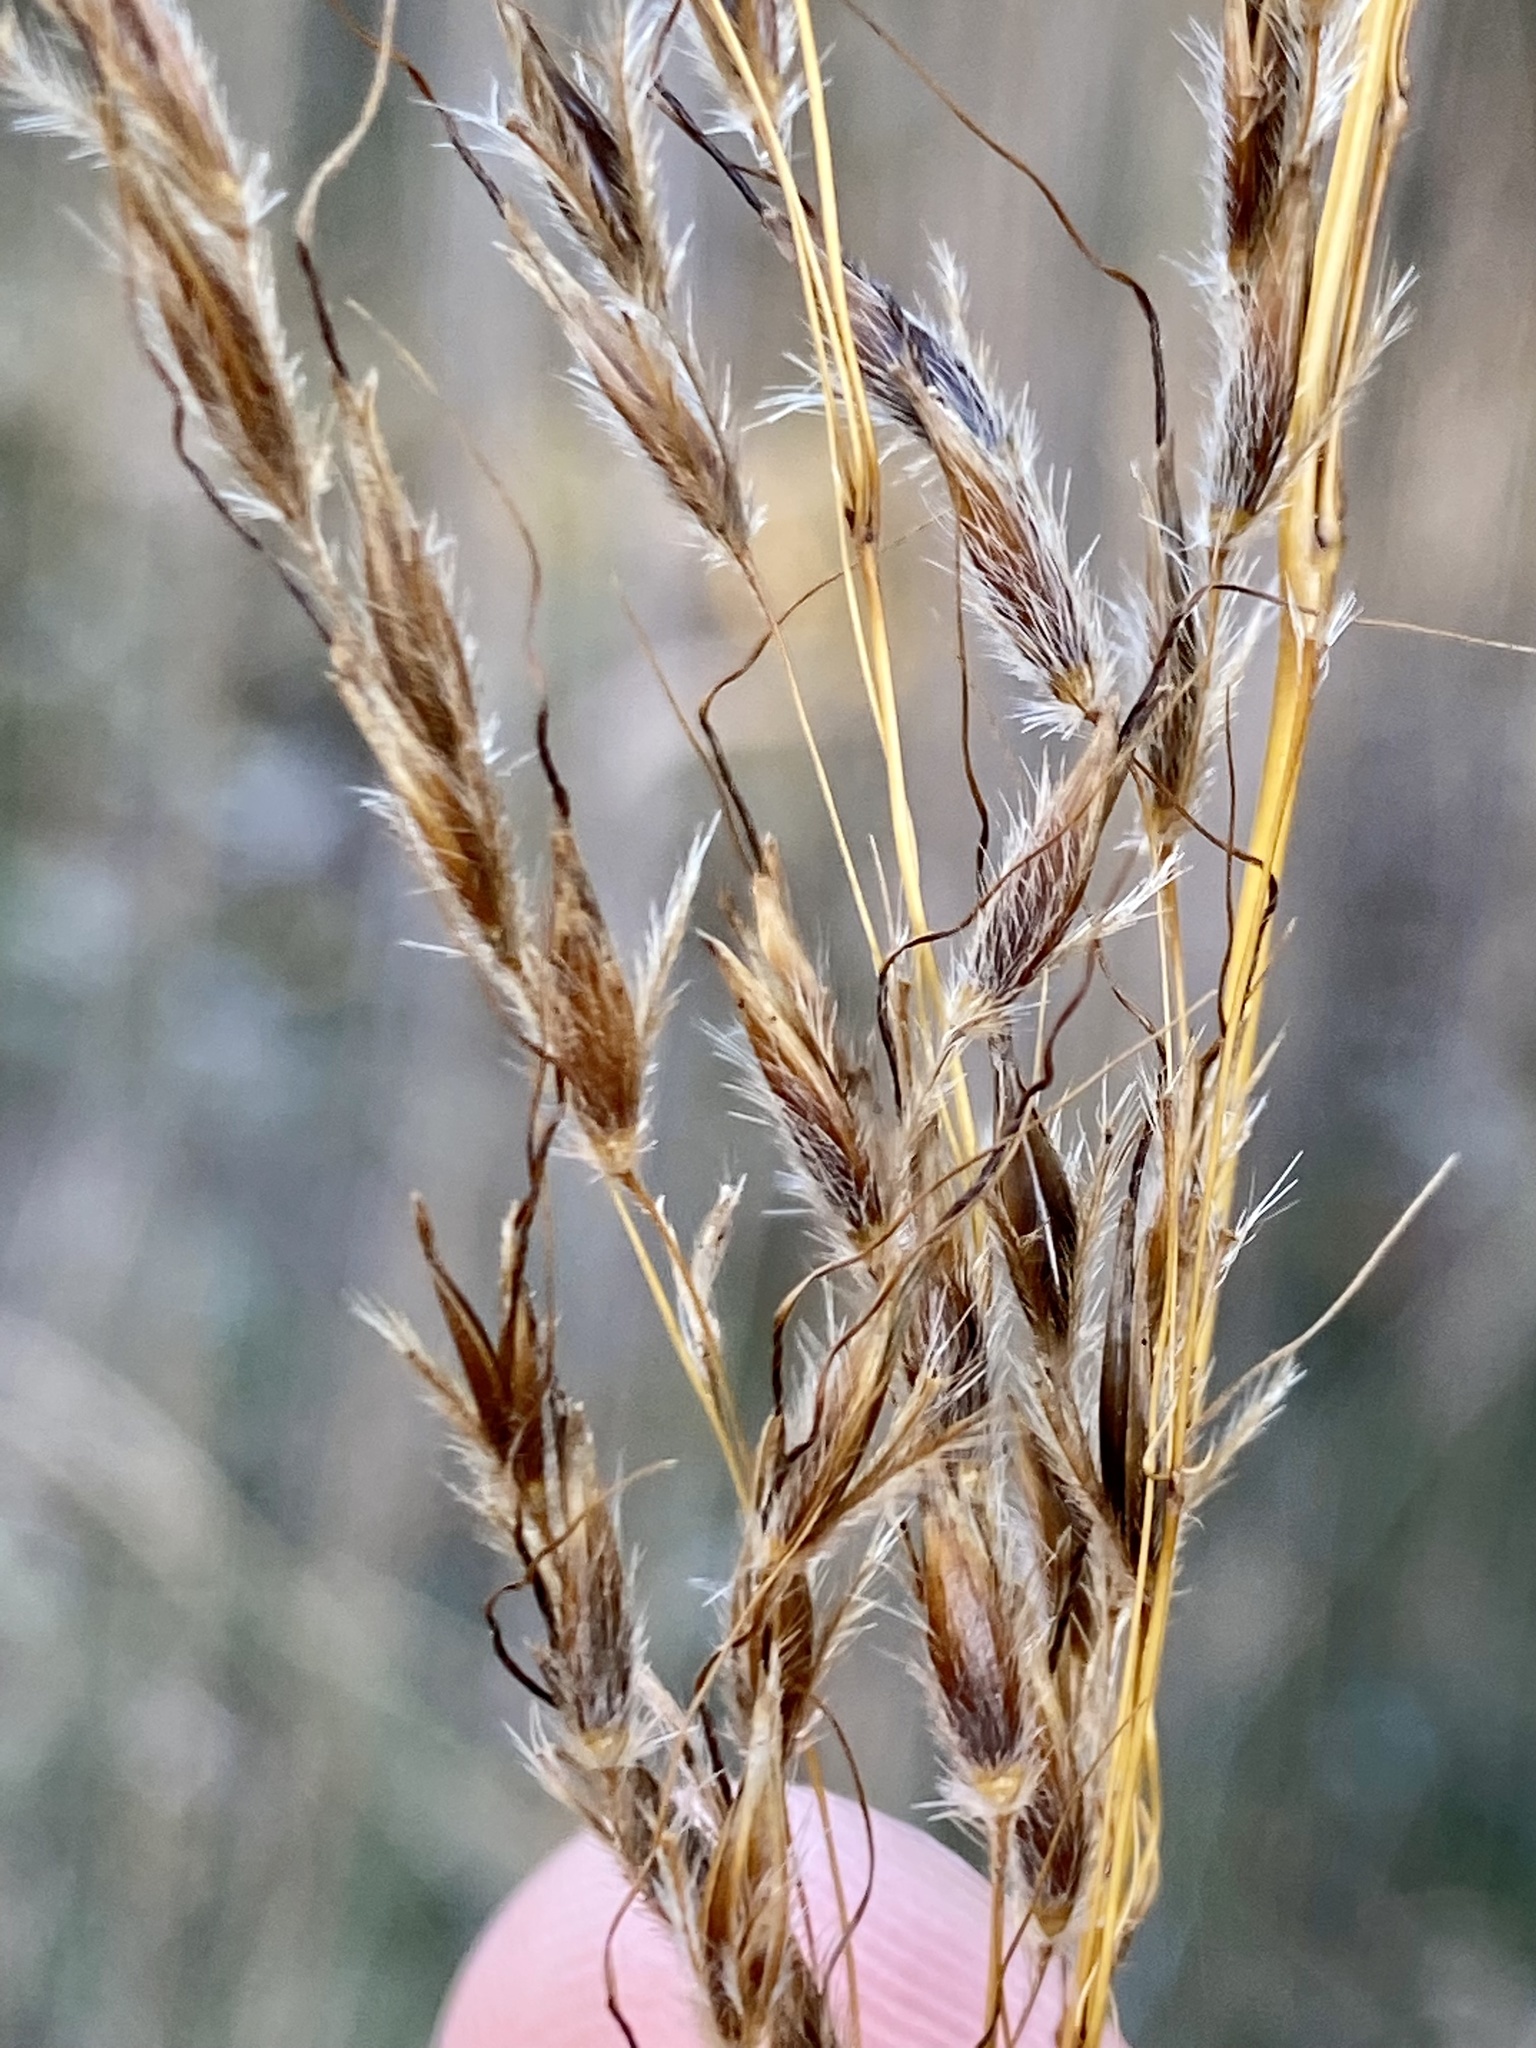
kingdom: Plantae
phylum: Tracheophyta
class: Liliopsida
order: Poales
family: Poaceae
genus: Sorghastrum
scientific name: Sorghastrum nutans
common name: Indian grass
